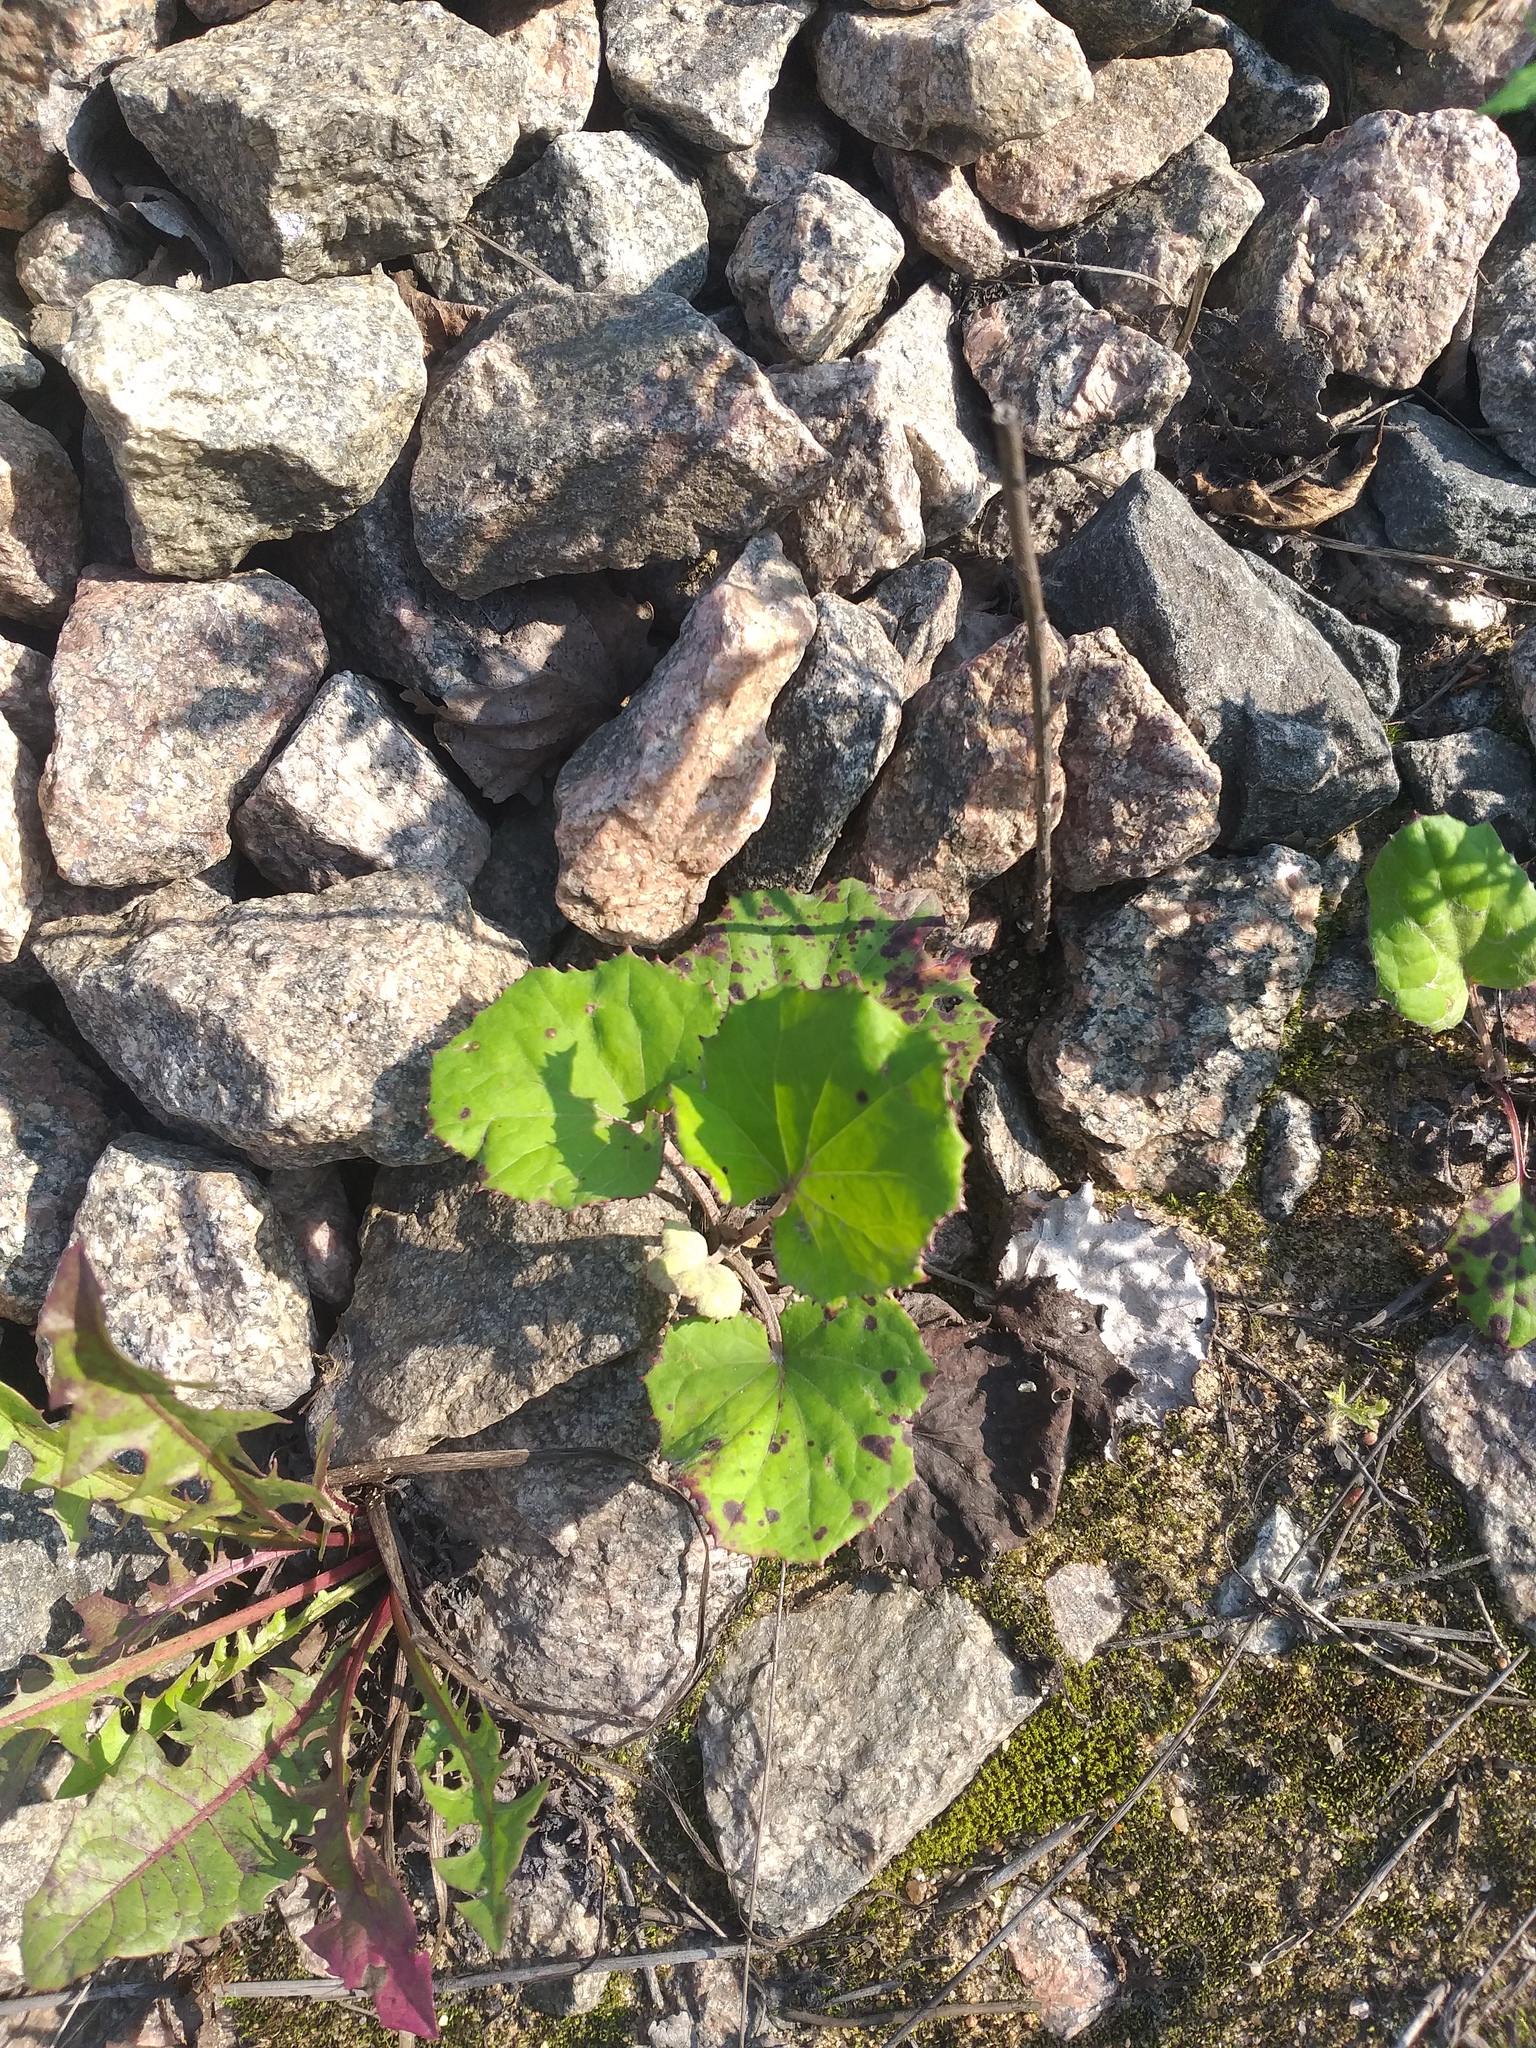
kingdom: Plantae
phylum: Tracheophyta
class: Magnoliopsida
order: Asterales
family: Asteraceae
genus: Tussilago
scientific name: Tussilago farfara
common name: Coltsfoot
